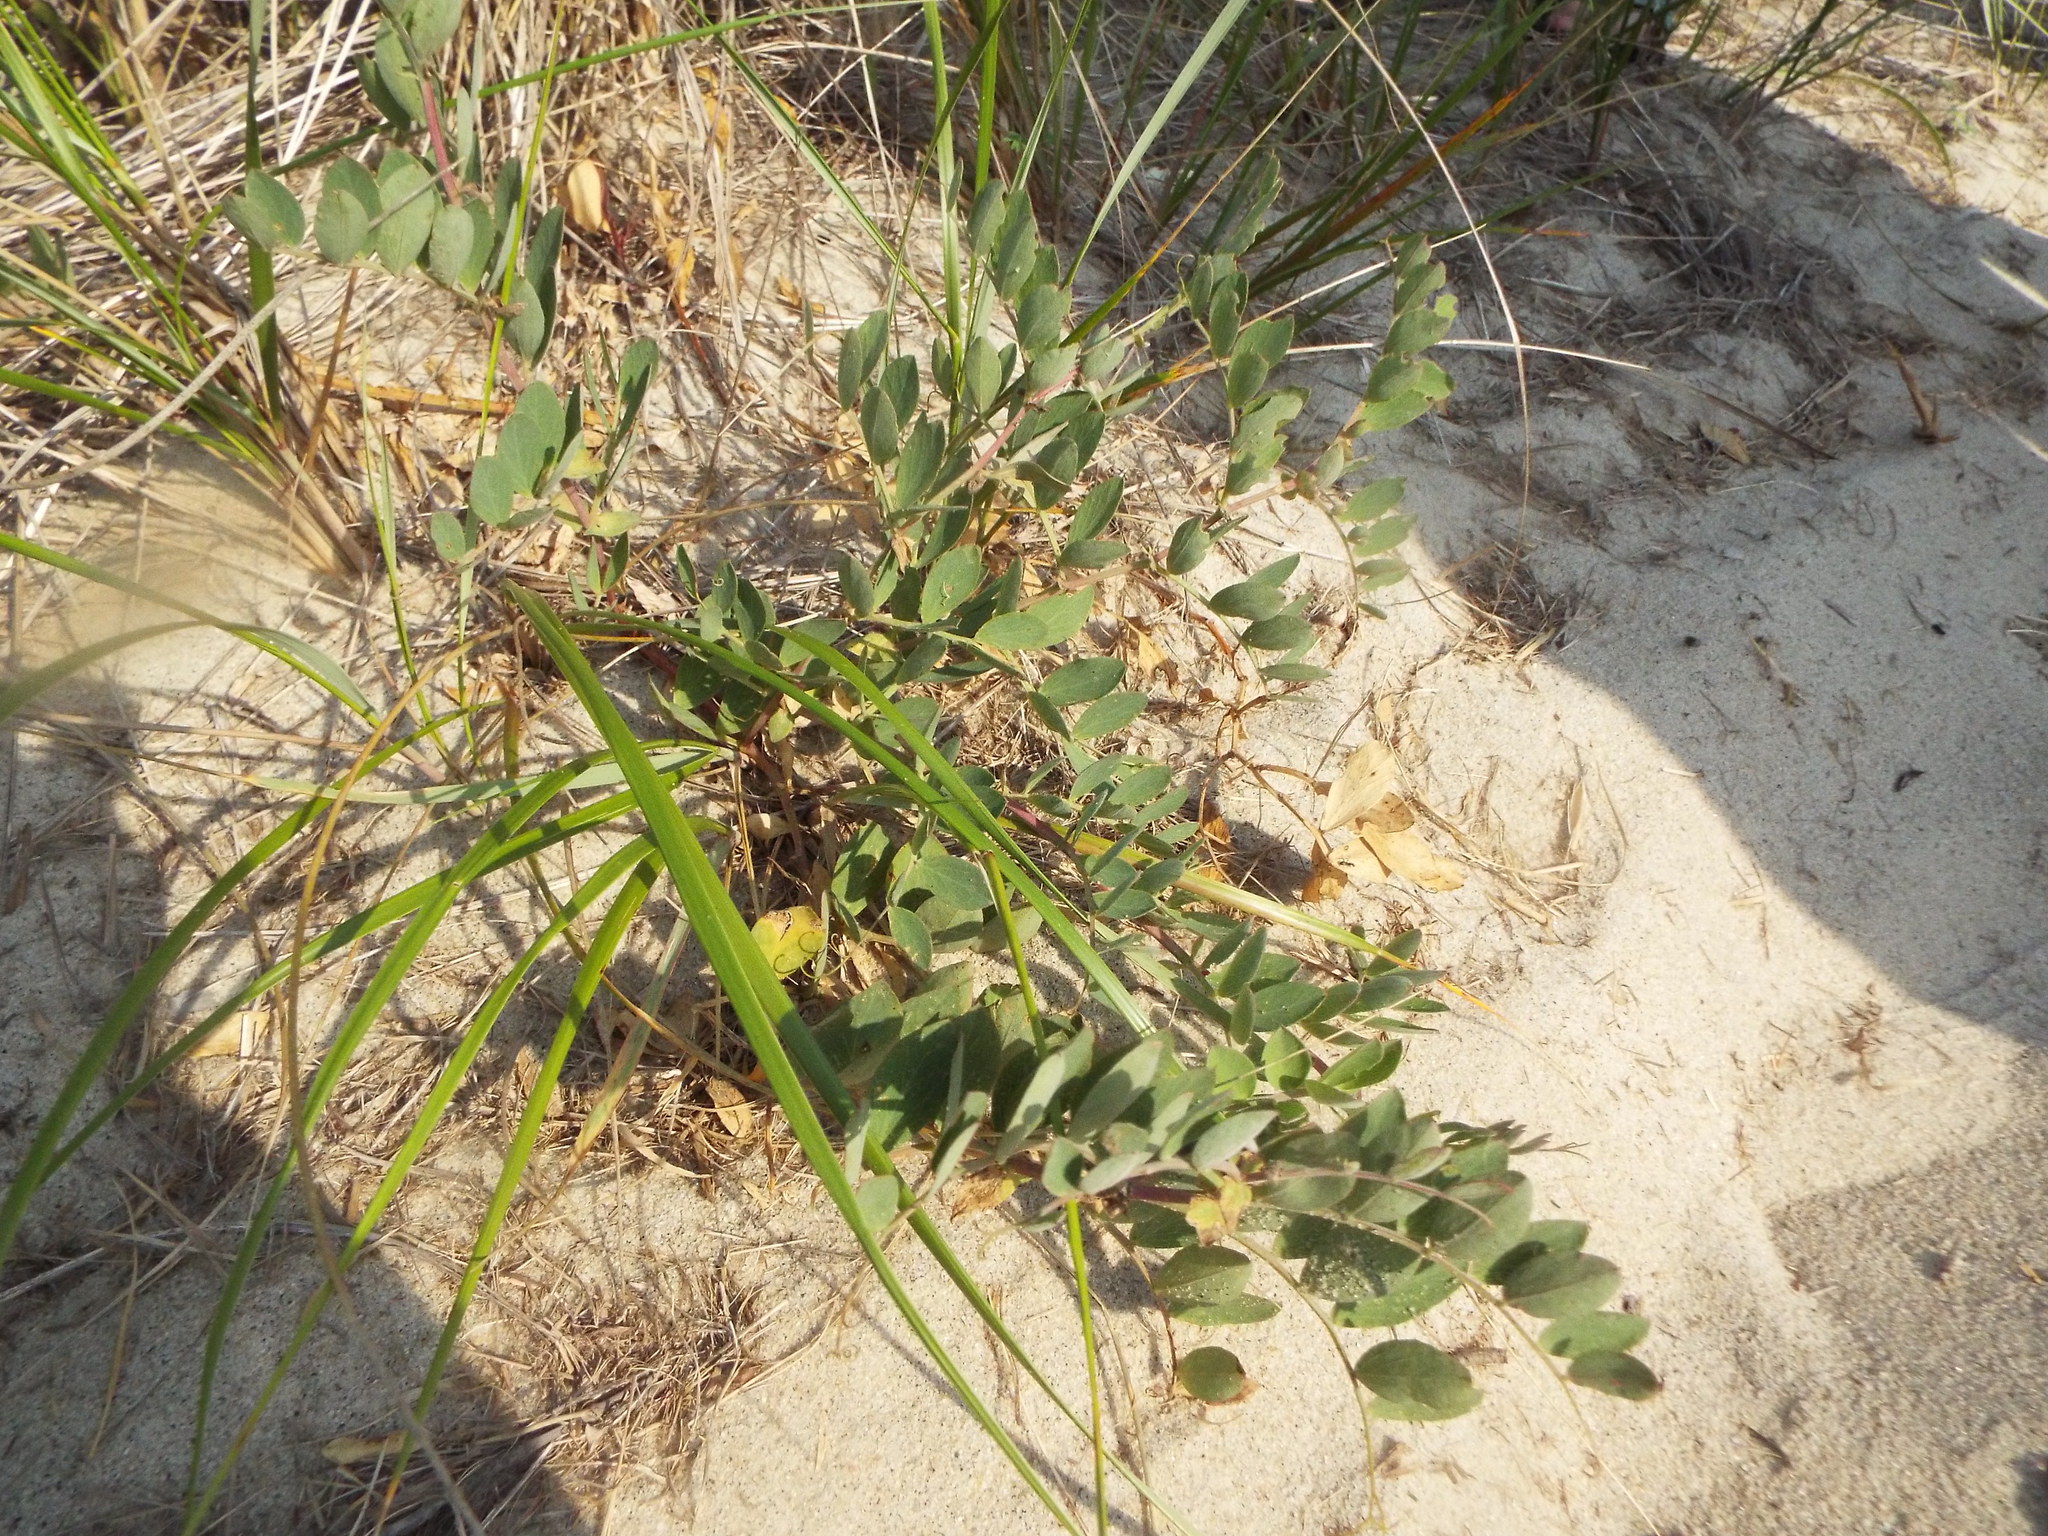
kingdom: Plantae
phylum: Tracheophyta
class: Magnoliopsida
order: Fabales
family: Fabaceae
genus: Lathyrus
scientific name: Lathyrus japonicus
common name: Sea pea
